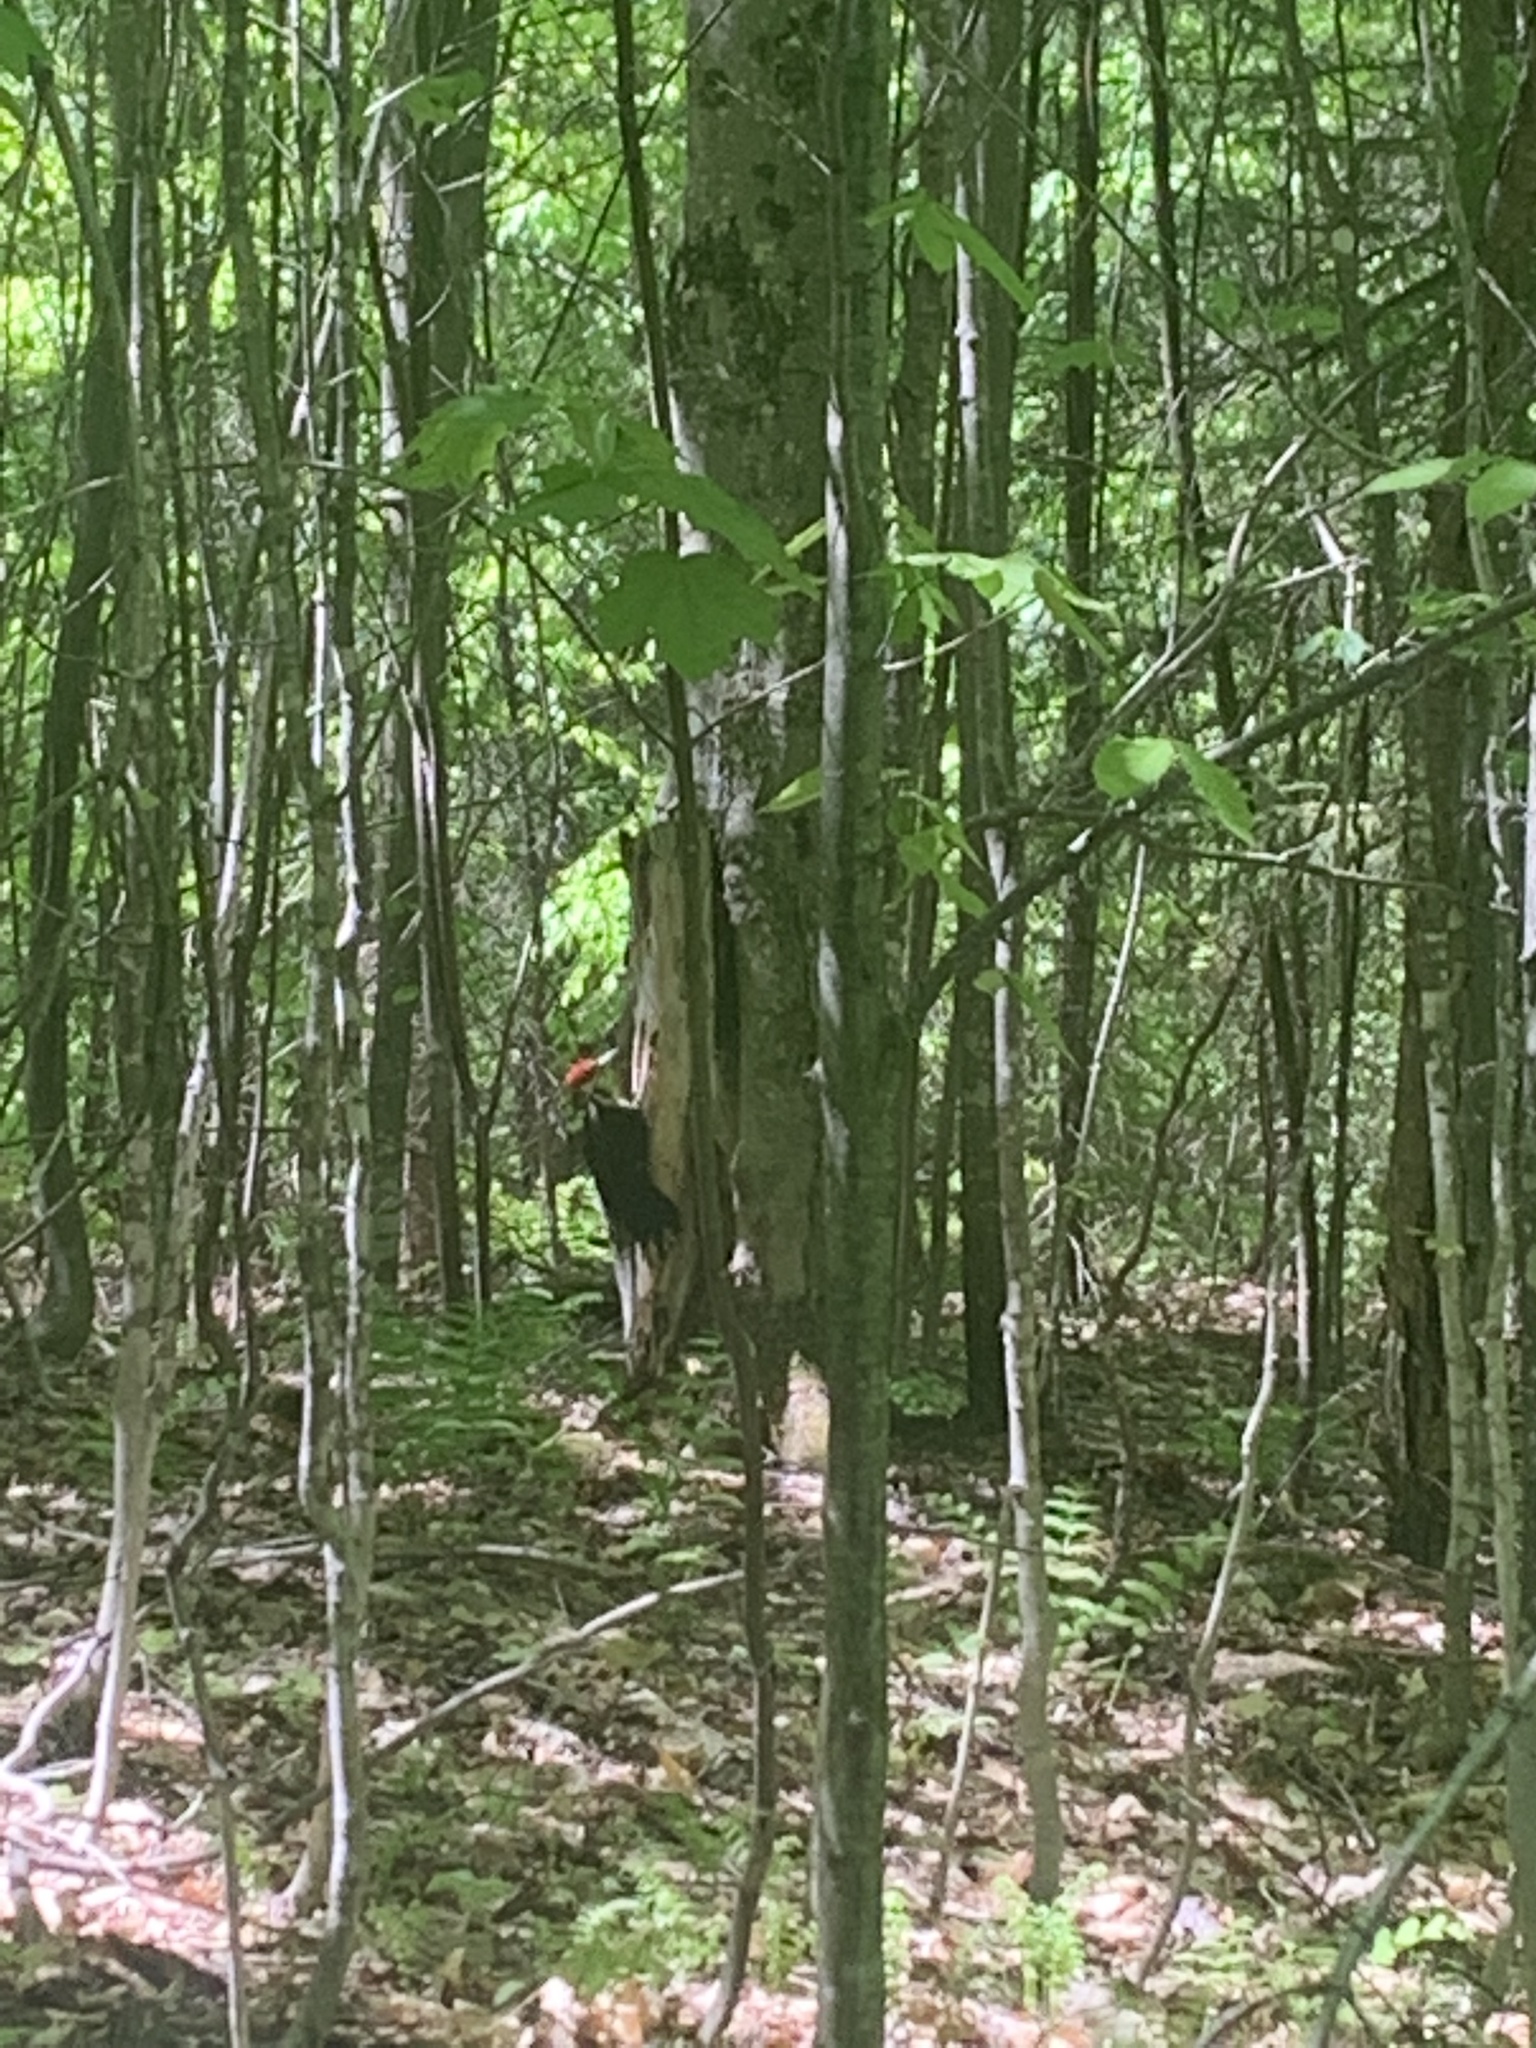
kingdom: Animalia
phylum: Chordata
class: Aves
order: Piciformes
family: Picidae
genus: Dryocopus
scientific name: Dryocopus pileatus
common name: Pileated woodpecker
